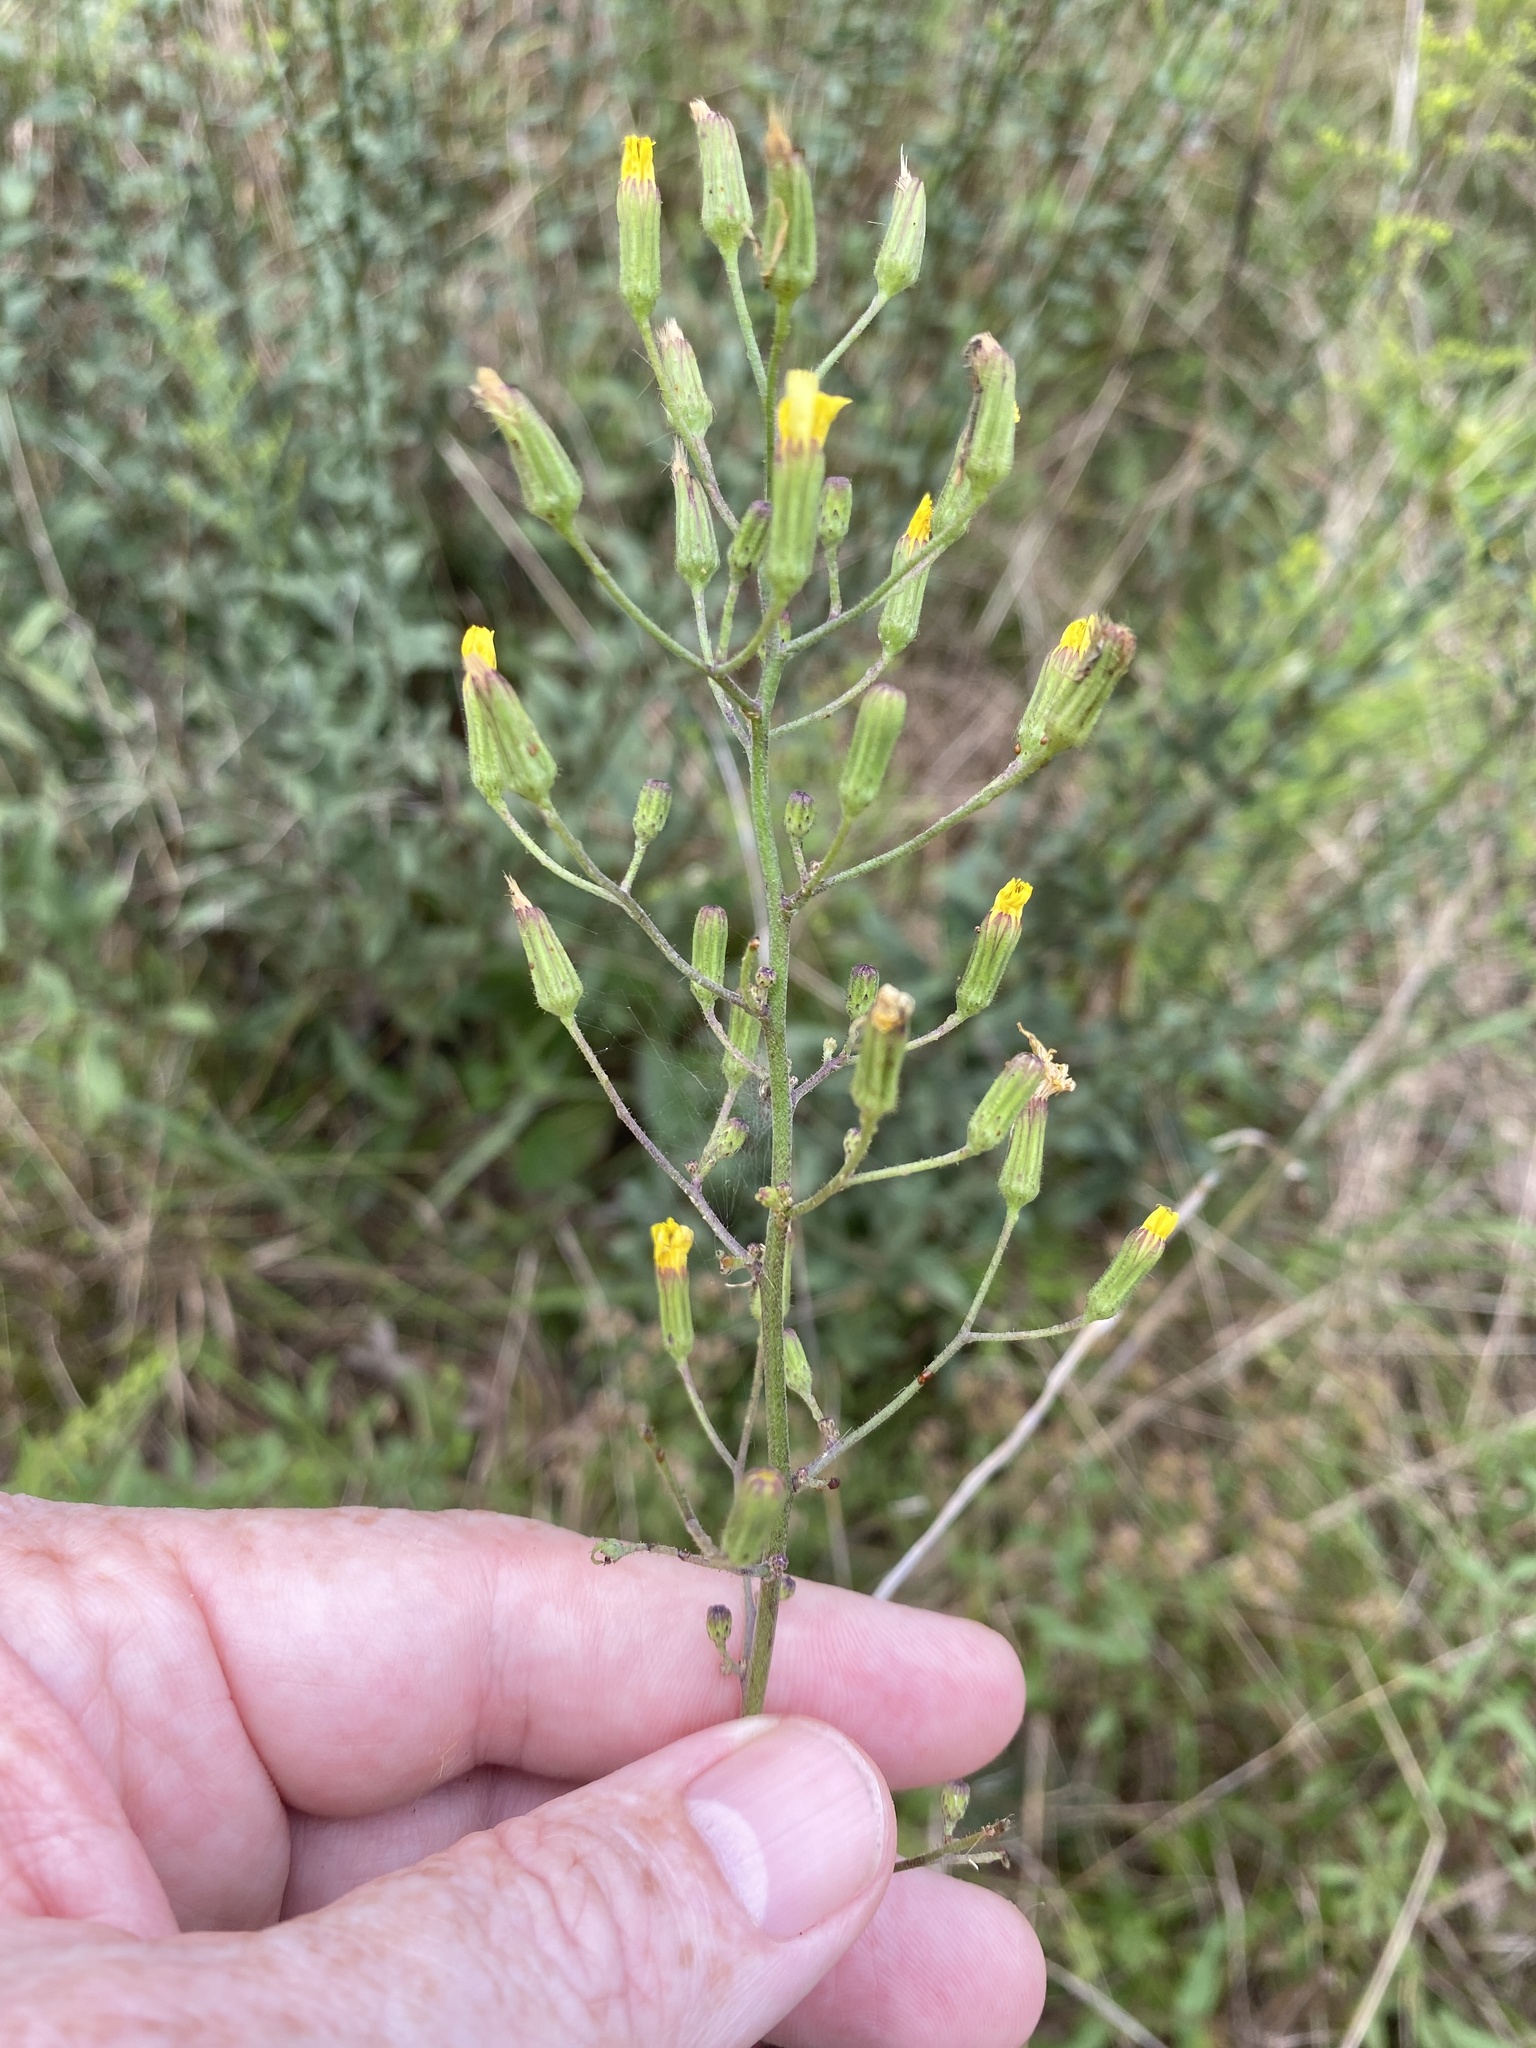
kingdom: Plantae
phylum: Tracheophyta
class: Magnoliopsida
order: Asterales
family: Asteraceae
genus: Hieracium
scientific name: Hieracium gronovii
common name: Beaked hawkweed
